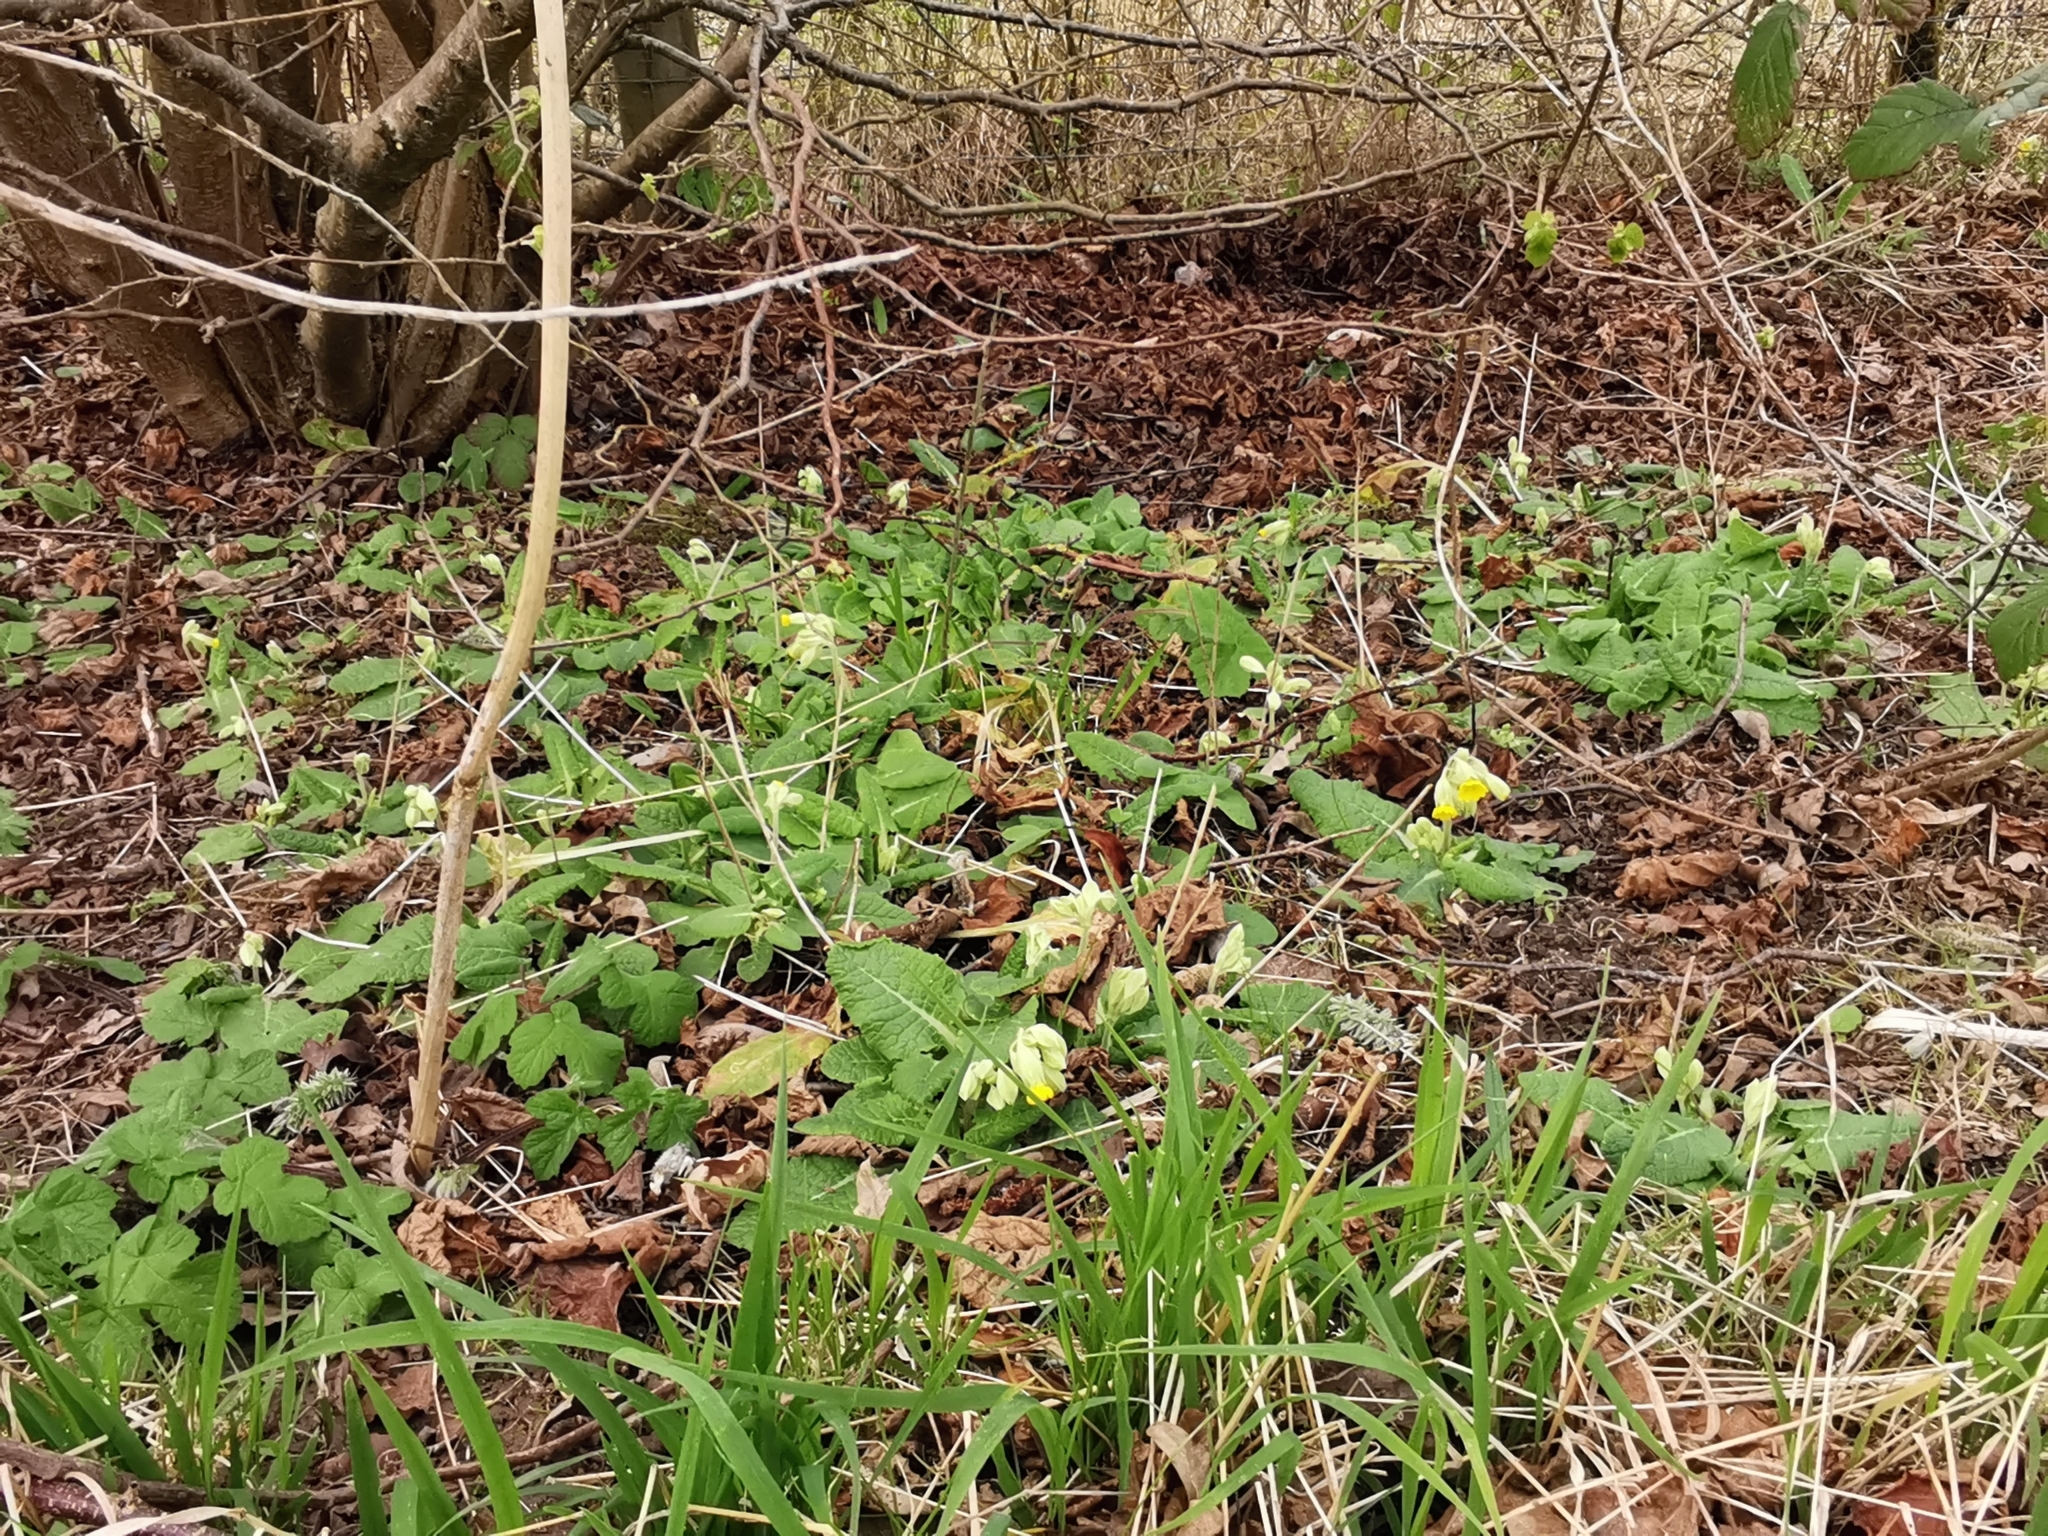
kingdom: Plantae
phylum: Tracheophyta
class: Magnoliopsida
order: Ericales
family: Primulaceae
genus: Primula
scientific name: Primula veris
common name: Cowslip
